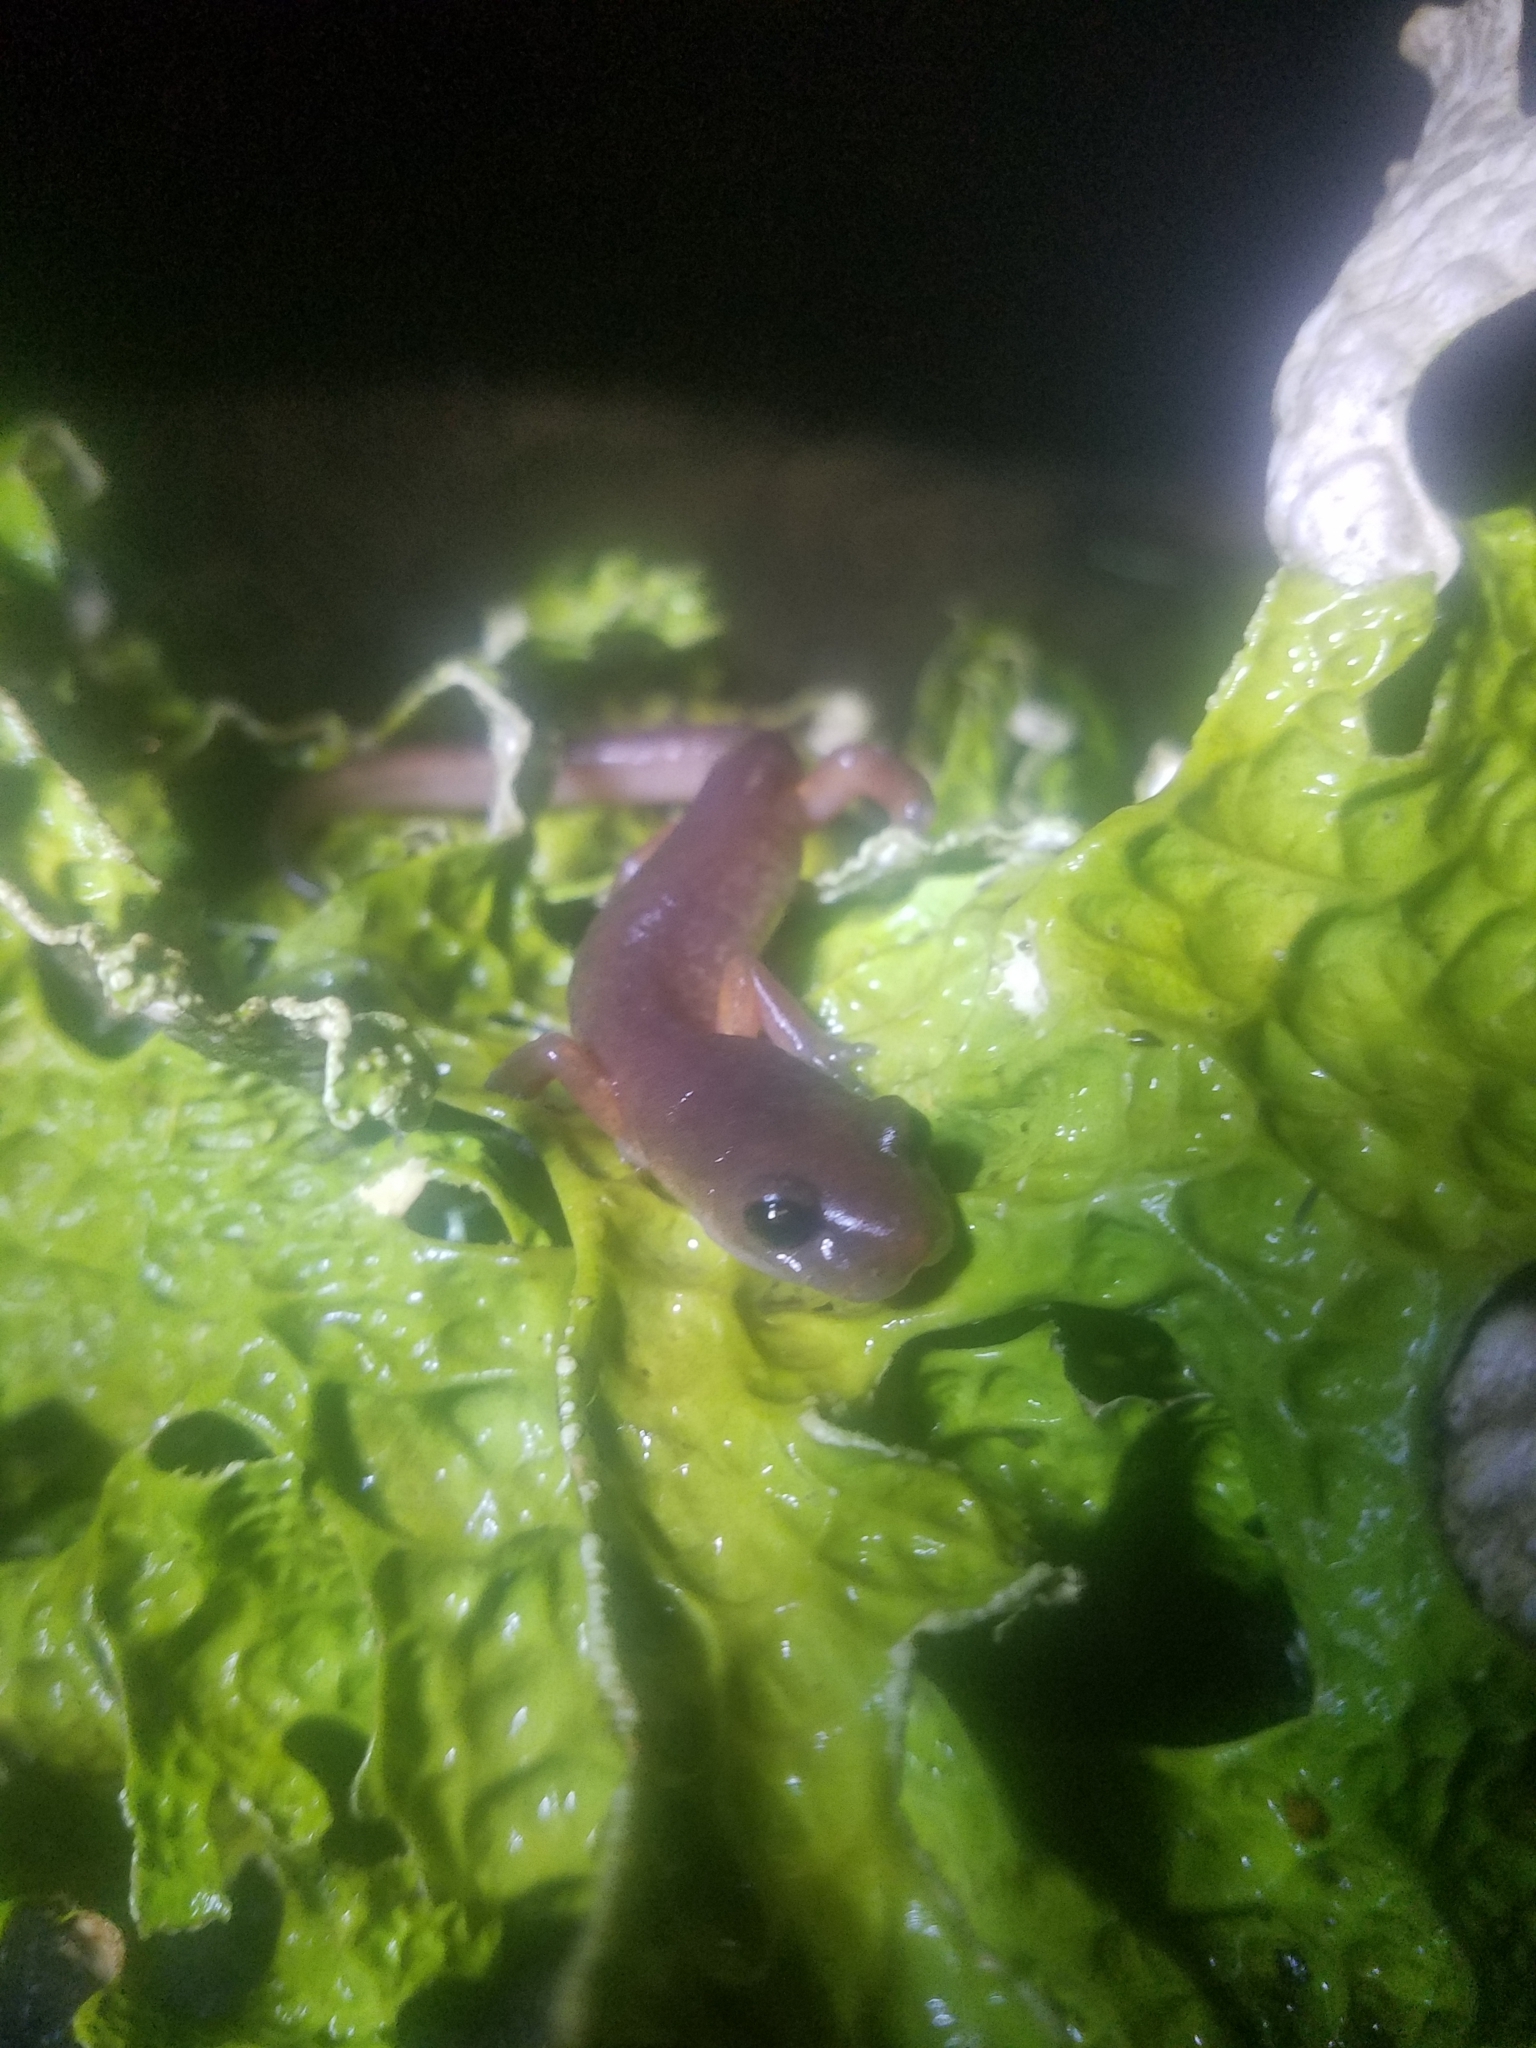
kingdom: Animalia
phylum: Chordata
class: Amphibia
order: Caudata
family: Plethodontidae
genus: Ensatina
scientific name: Ensatina eschscholtzii
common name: Ensatina
